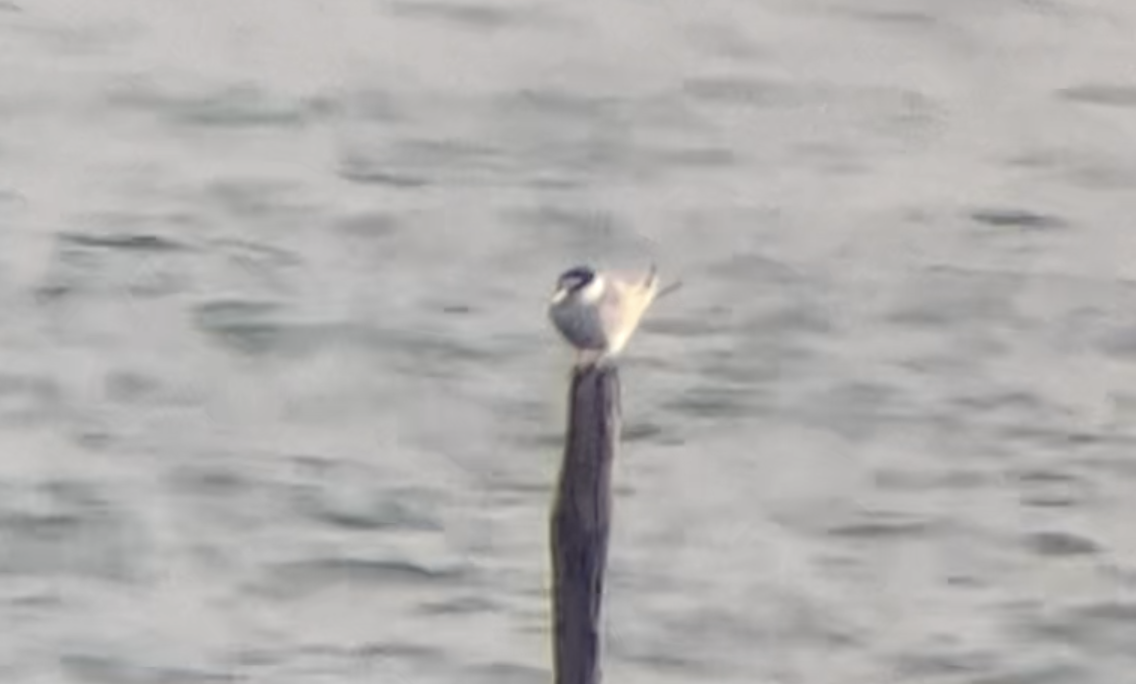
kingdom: Animalia
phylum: Chordata
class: Aves
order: Charadriiformes
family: Laridae
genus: Sternula
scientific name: Sternula albifrons
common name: Little tern
